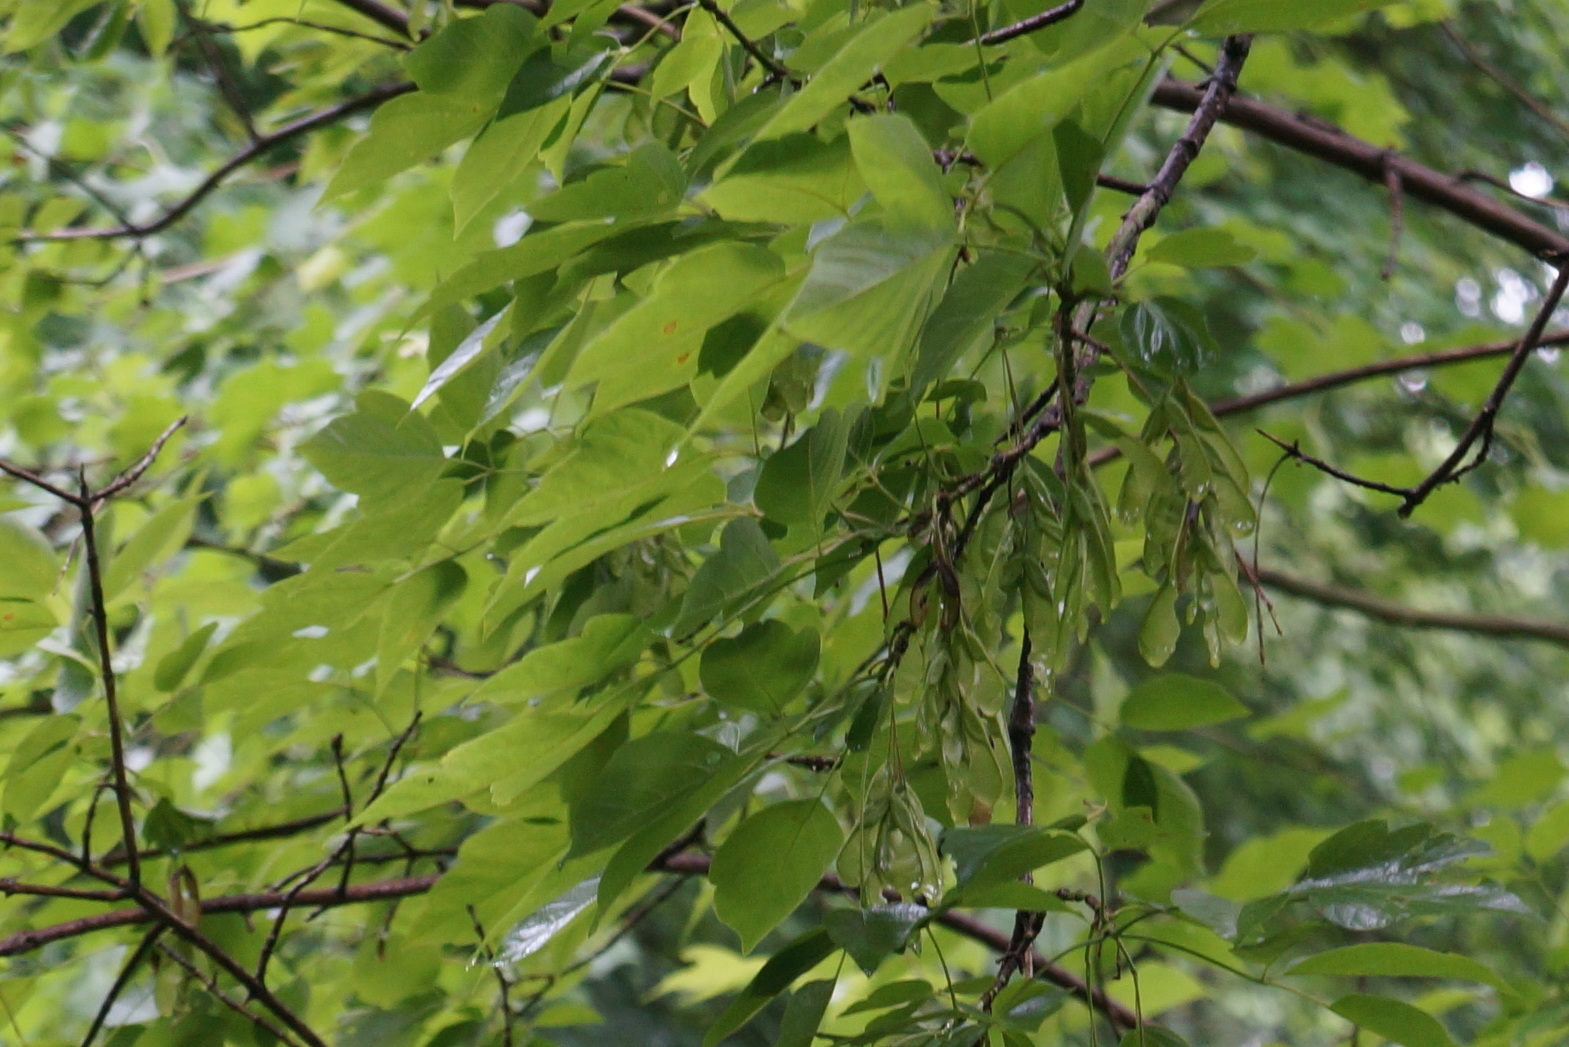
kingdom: Plantae
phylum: Tracheophyta
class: Magnoliopsida
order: Sapindales
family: Sapindaceae
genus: Acer
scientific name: Acer negundo
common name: Ashleaf maple
